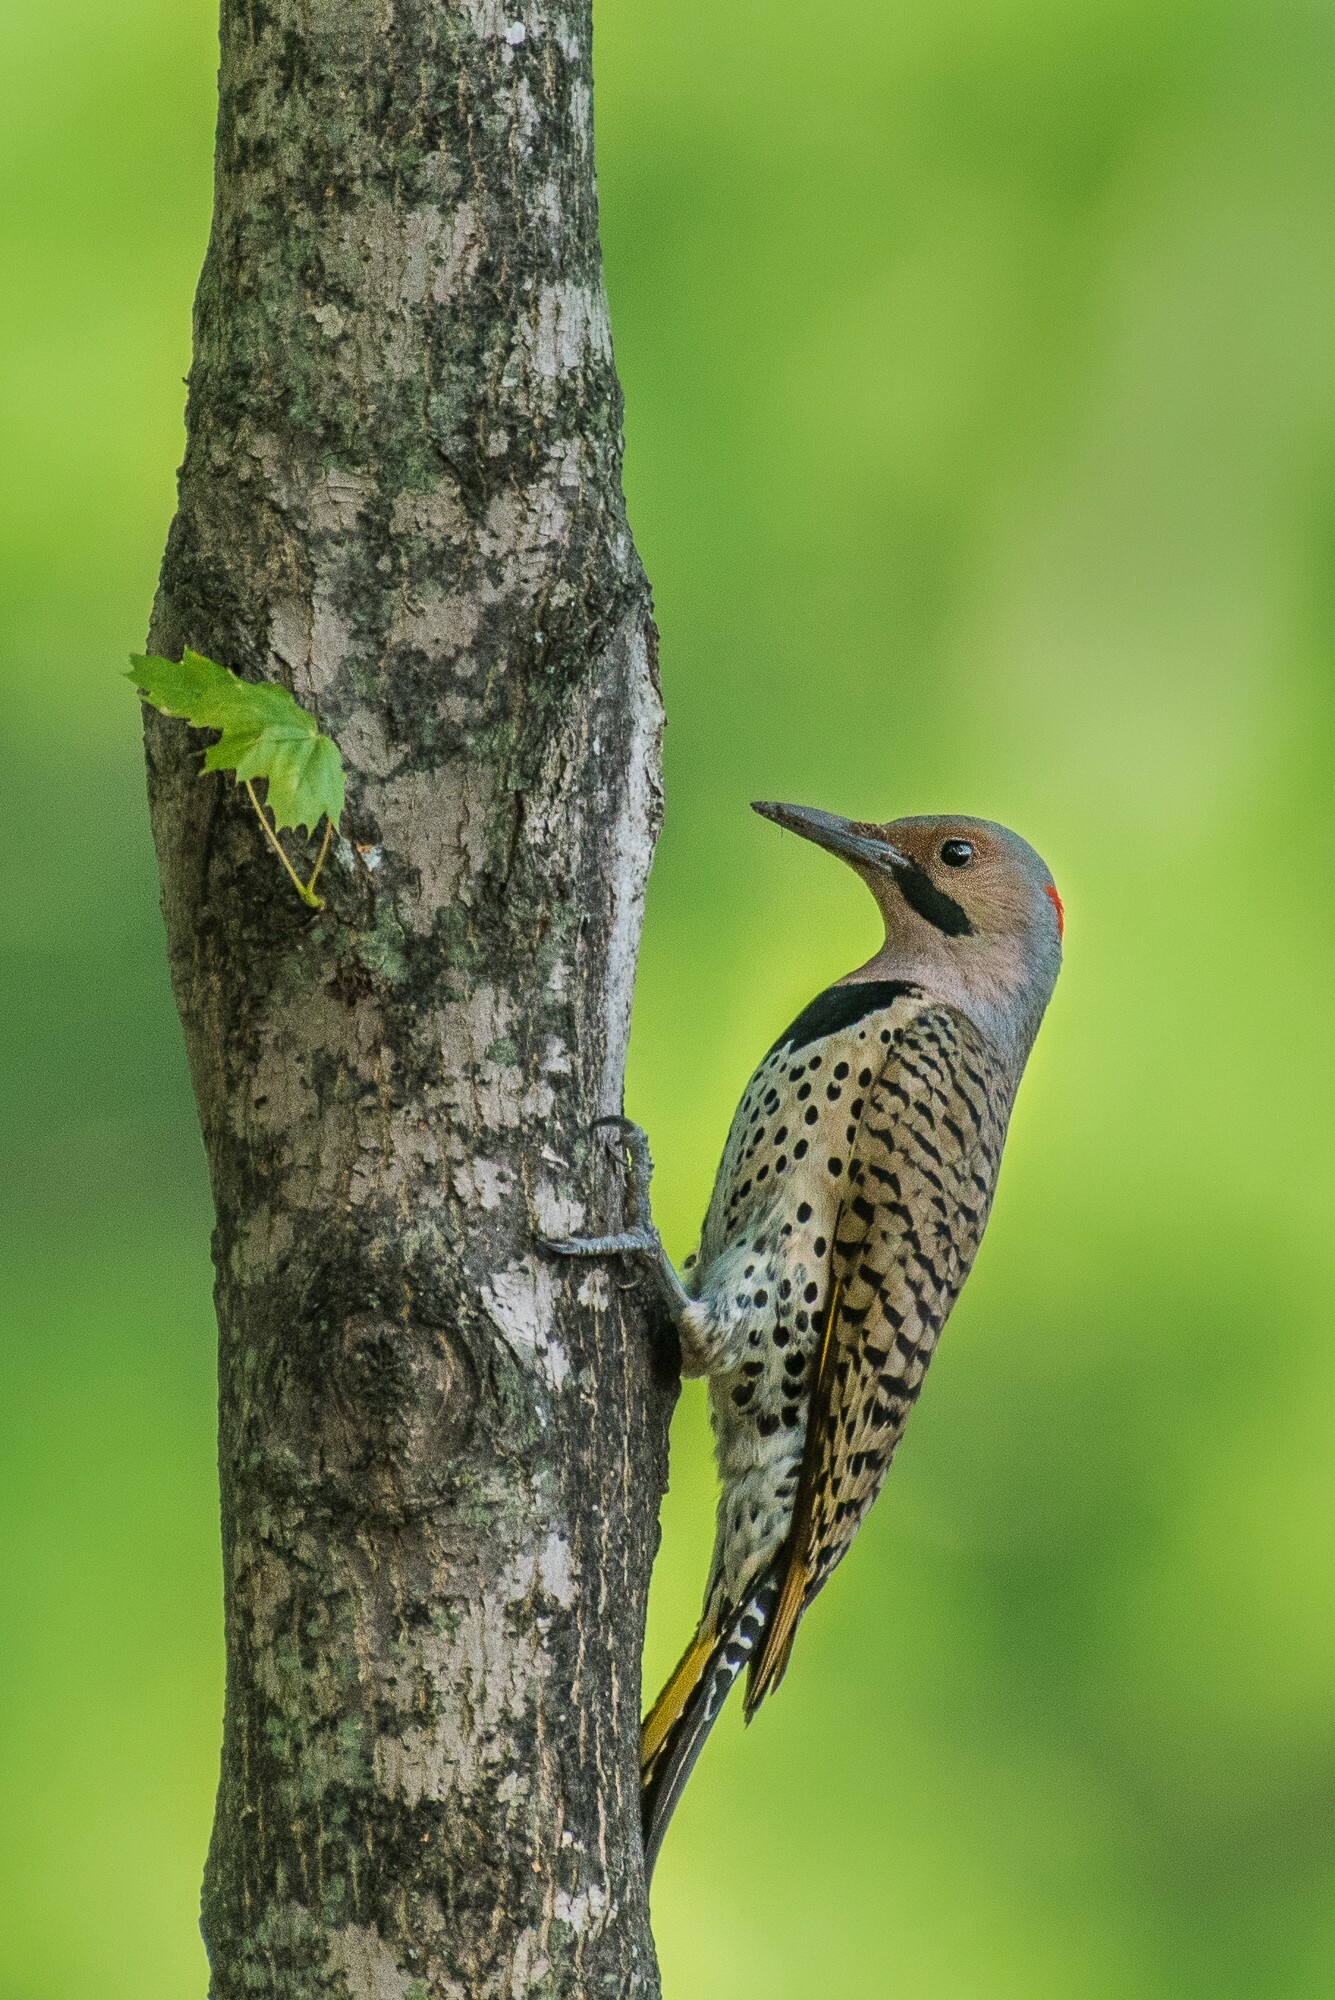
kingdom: Animalia
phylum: Chordata
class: Aves
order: Piciformes
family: Picidae
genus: Colaptes
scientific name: Colaptes auratus
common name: Northern flicker
